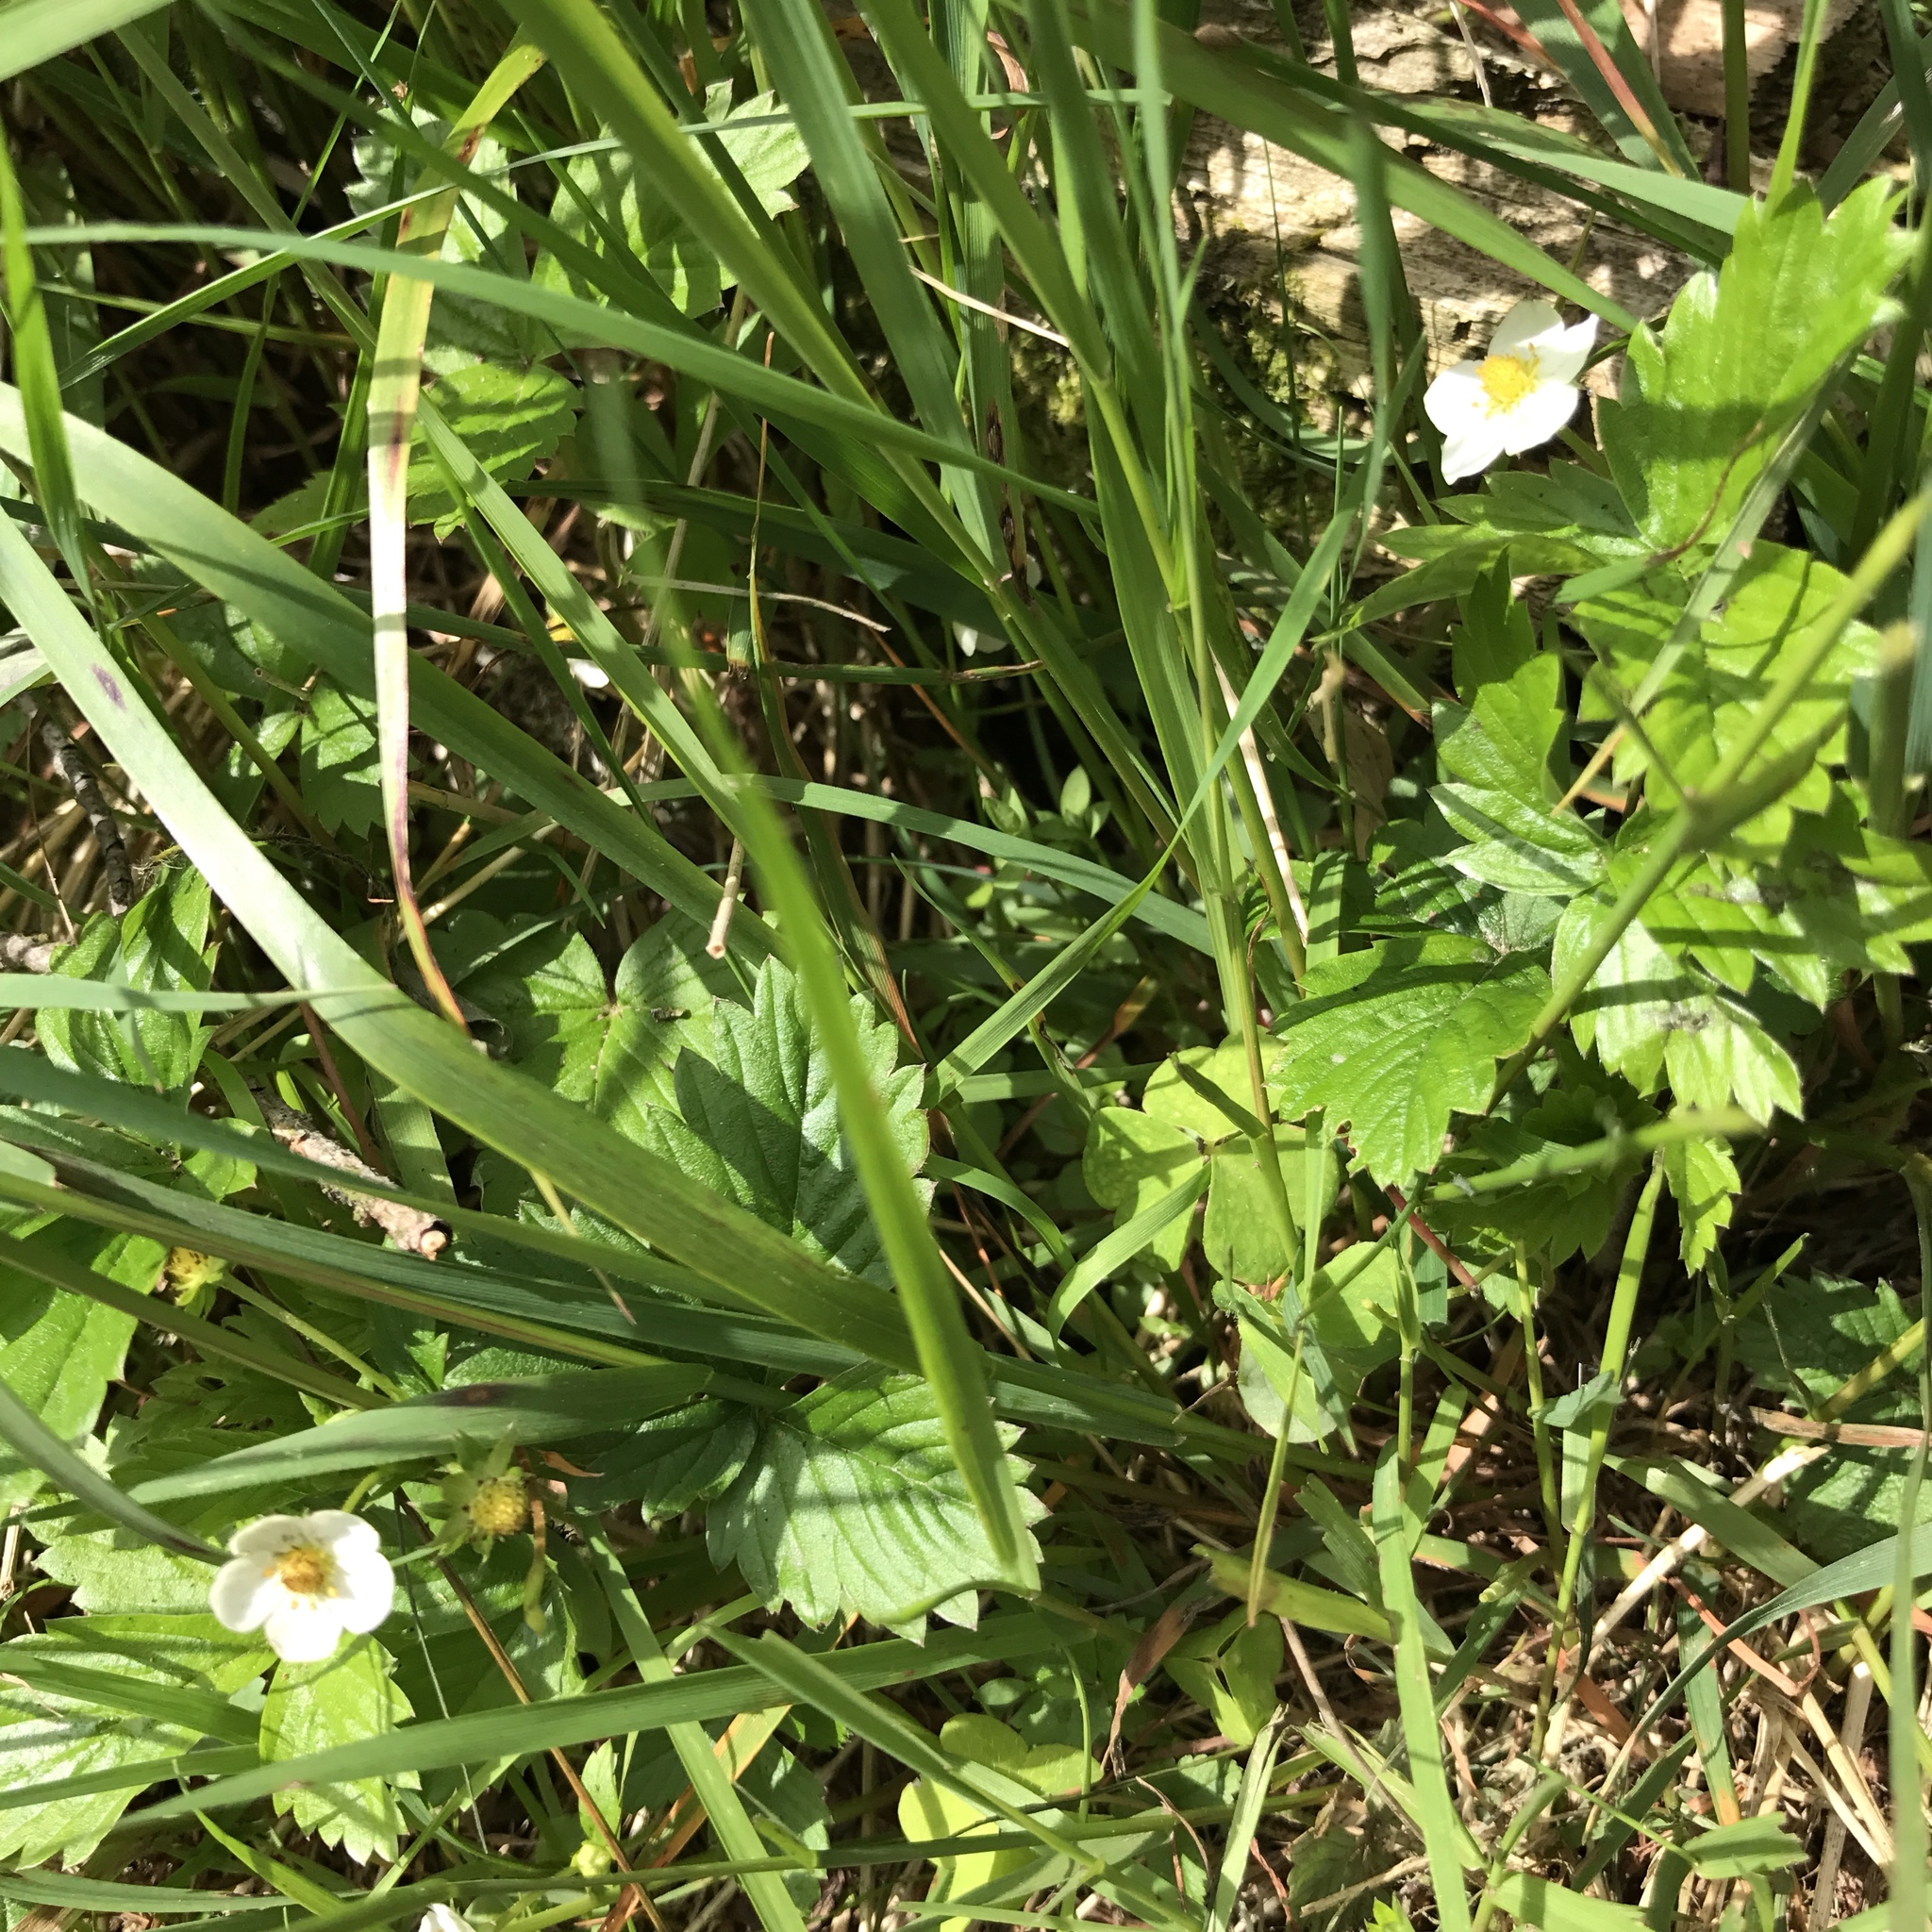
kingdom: Plantae
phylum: Tracheophyta
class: Magnoliopsida
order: Rosales
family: Rosaceae
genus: Fragaria
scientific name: Fragaria vesca
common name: Wild strawberry
